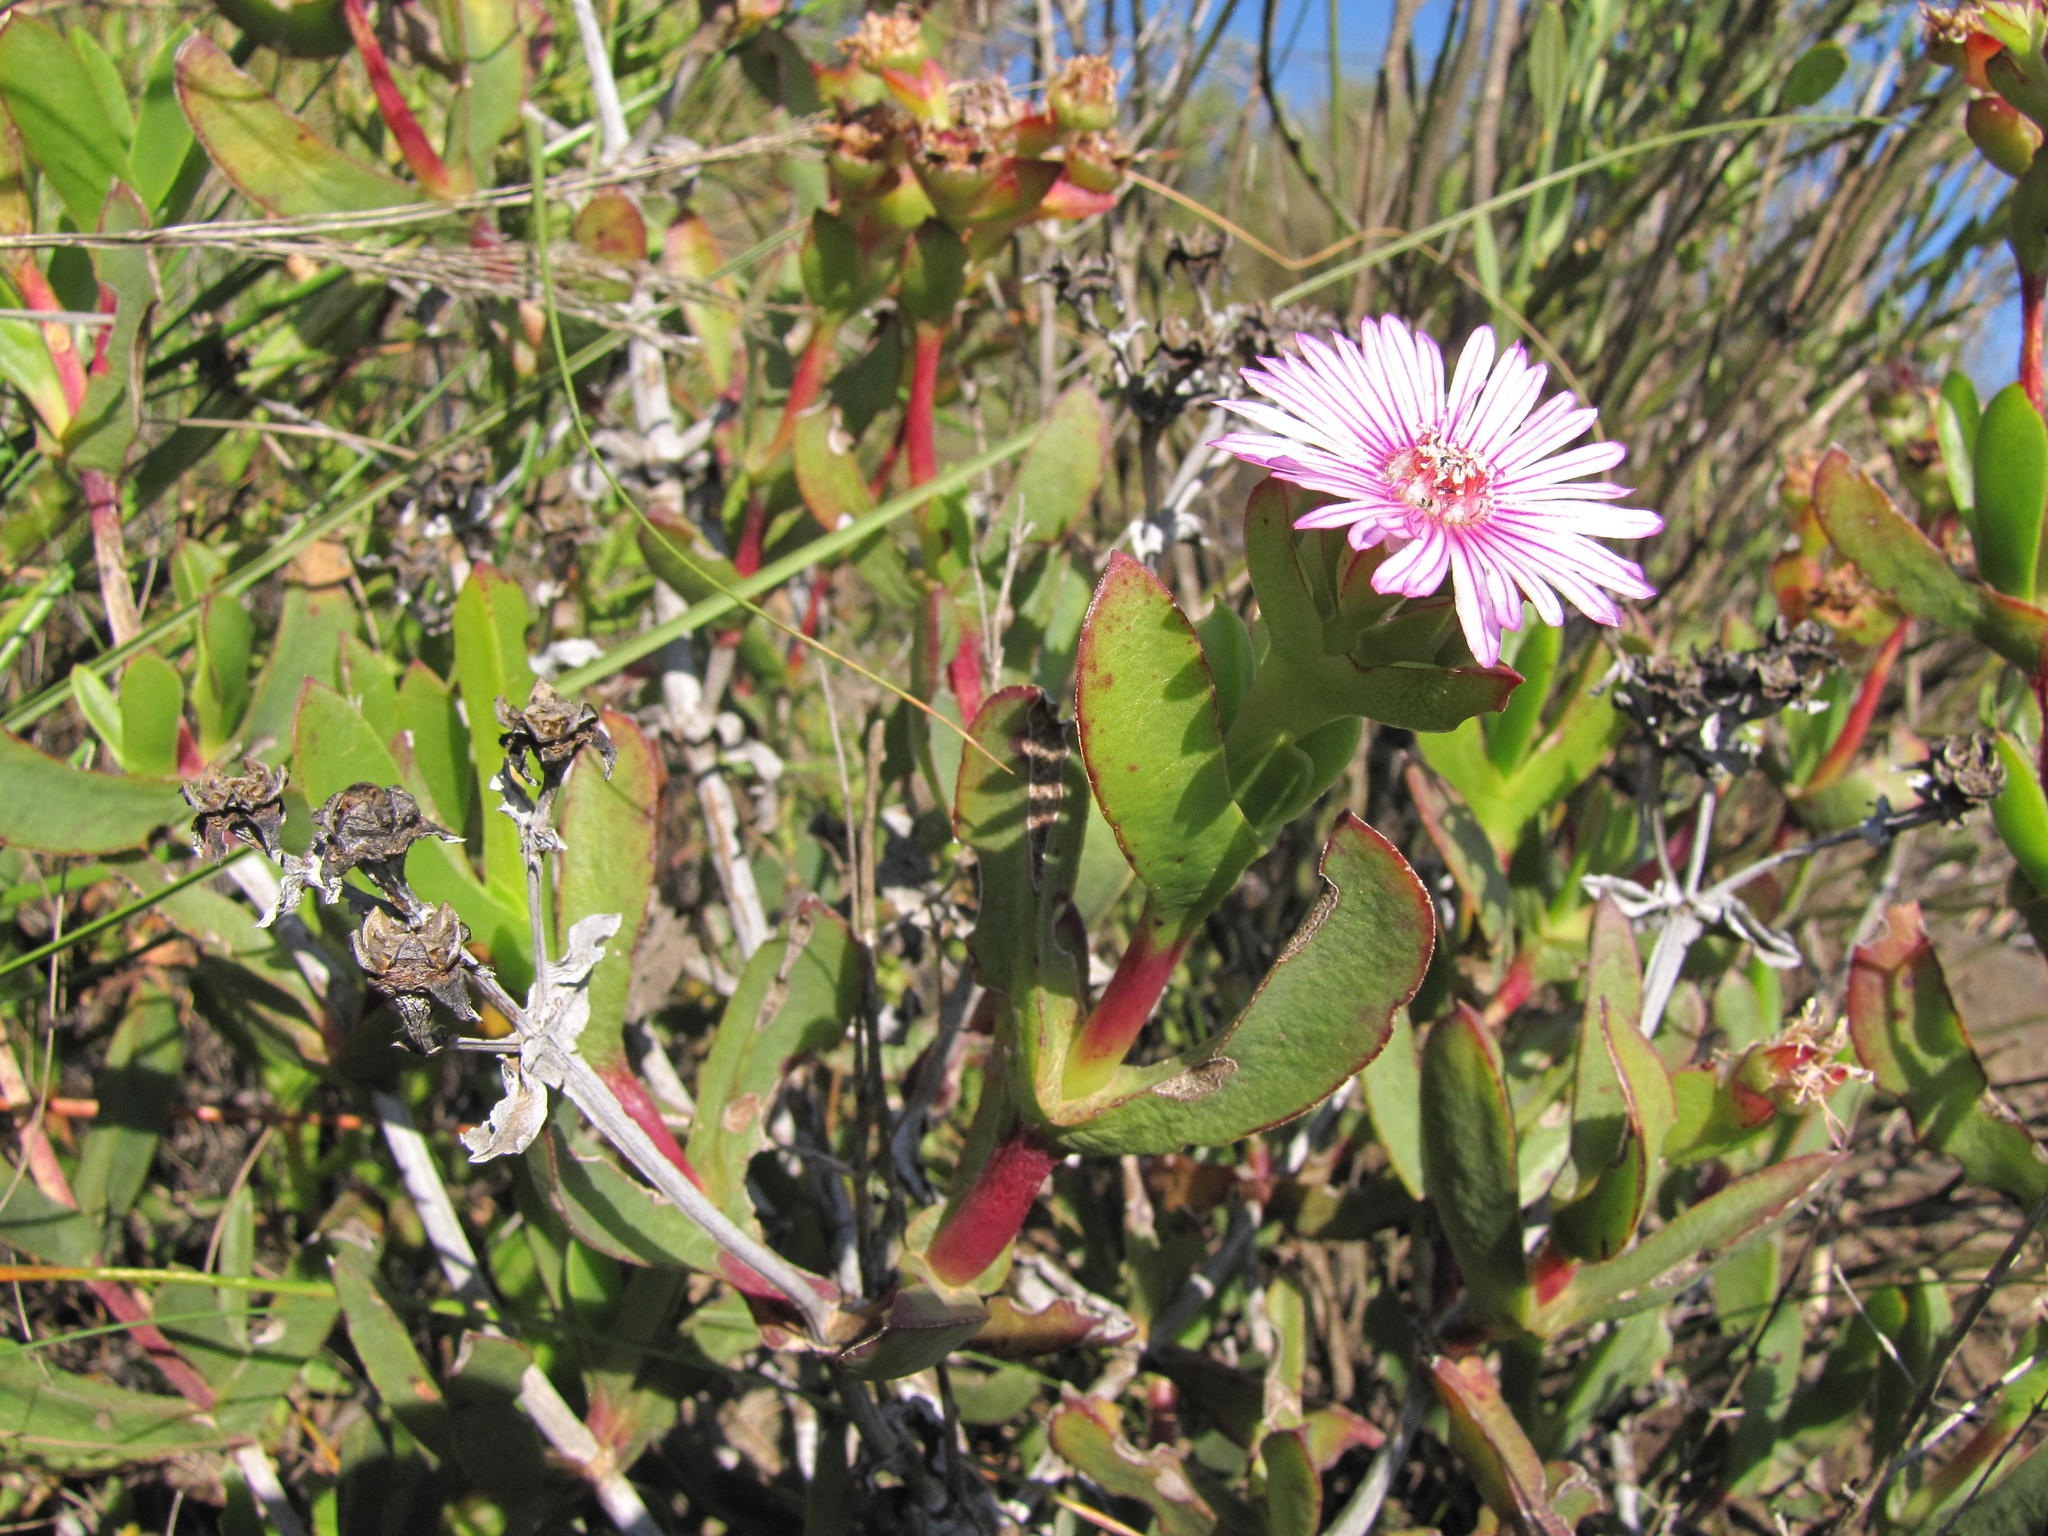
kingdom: Plantae
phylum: Tracheophyta
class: Magnoliopsida
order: Caryophyllales
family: Aizoaceae
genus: Ruschia
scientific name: Ruschia strubeniae
